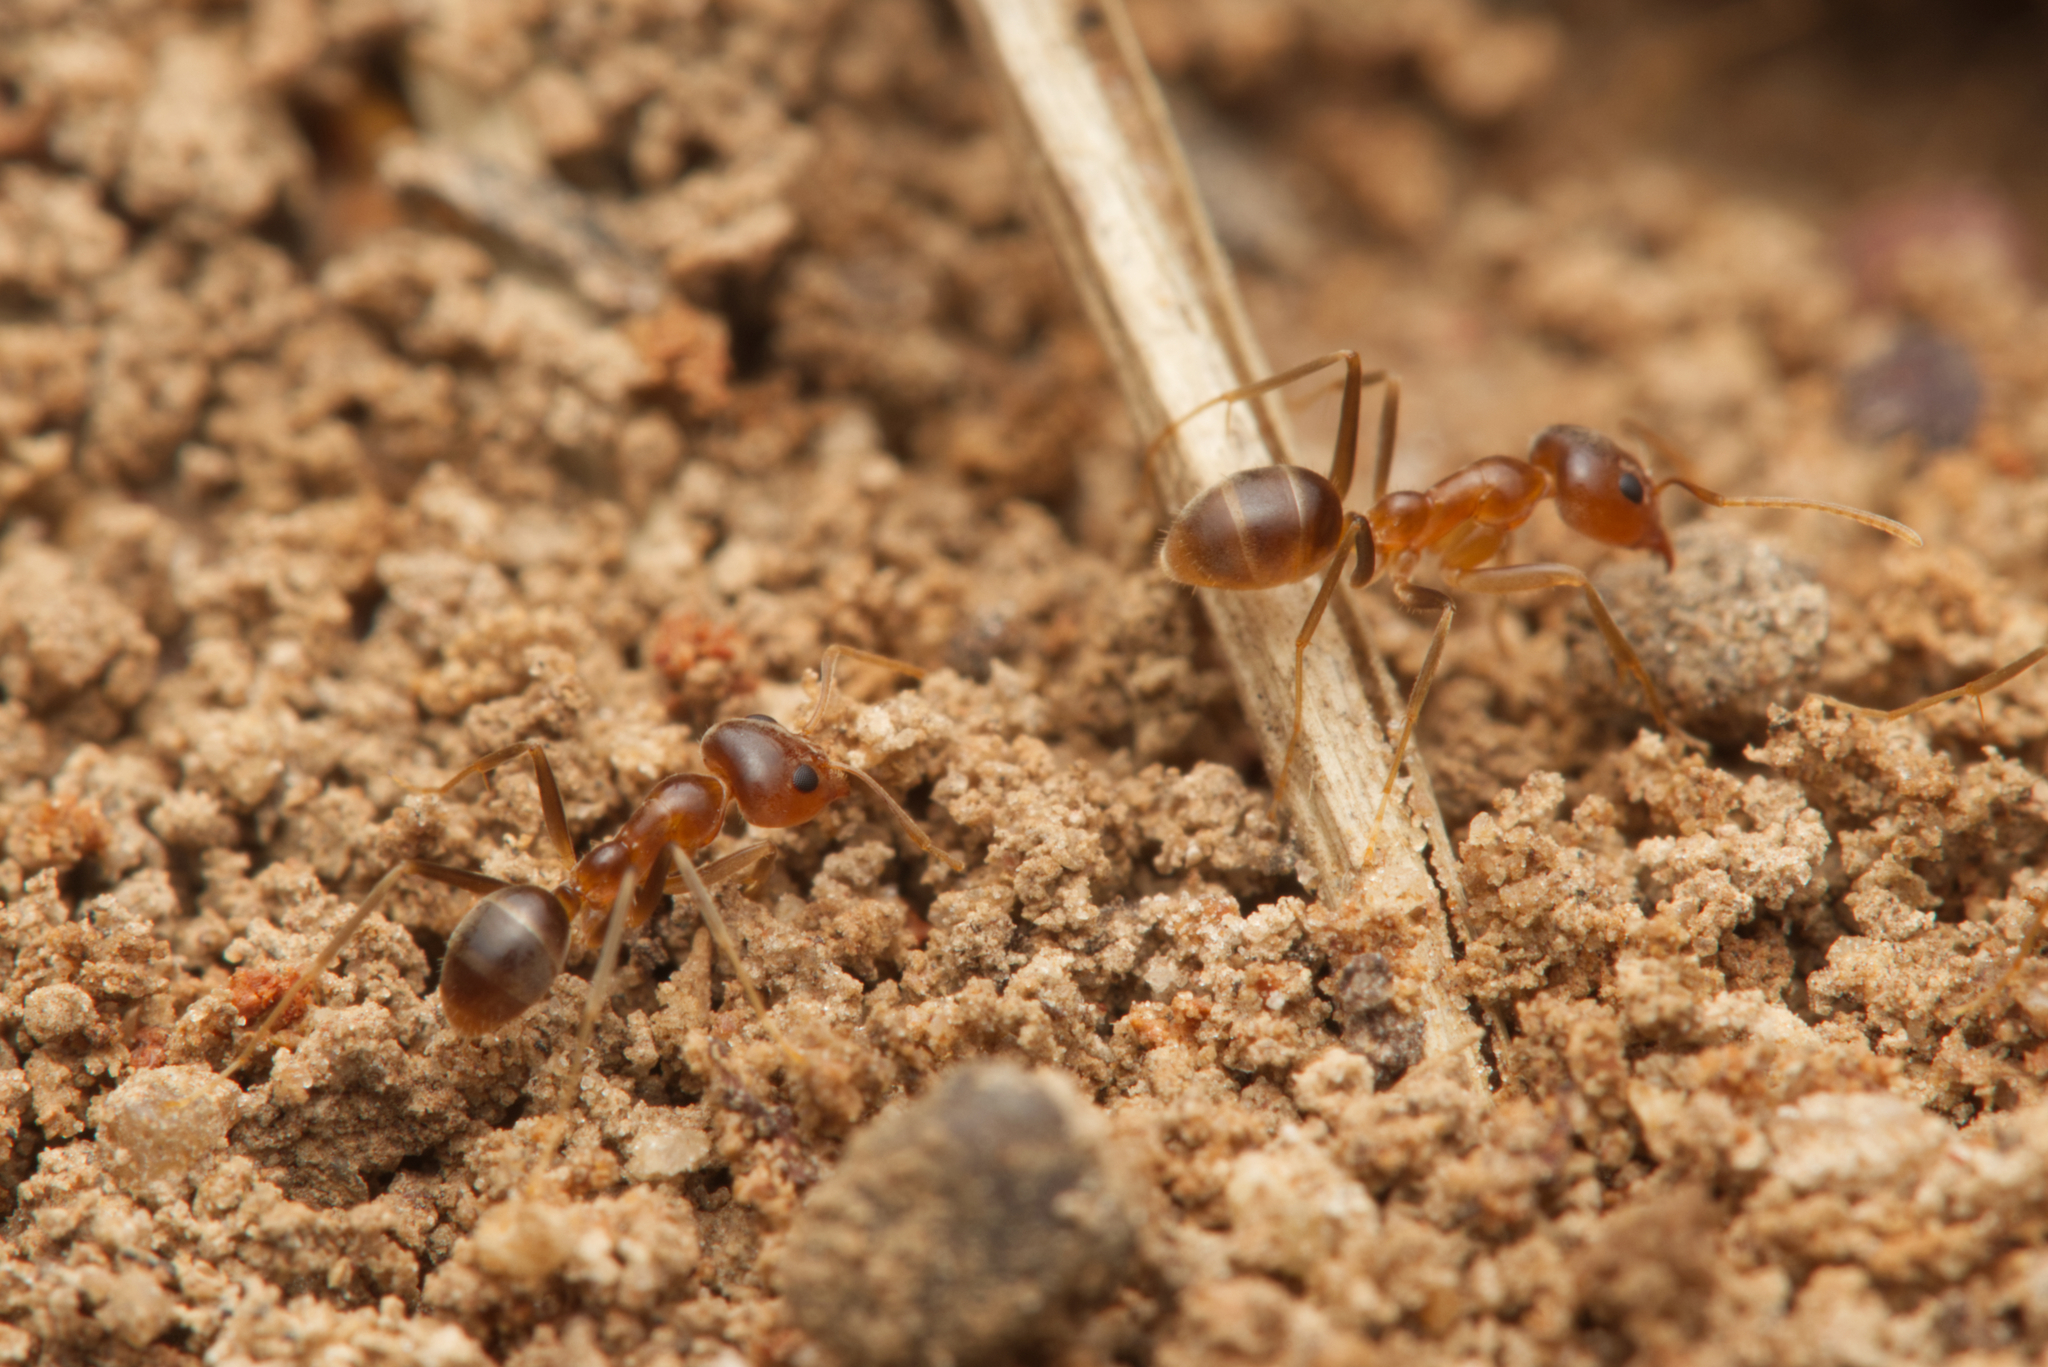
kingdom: Animalia
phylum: Arthropoda
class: Insecta
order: Hymenoptera
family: Formicidae
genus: Iridomyrmex
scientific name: Iridomyrmex pallidus
